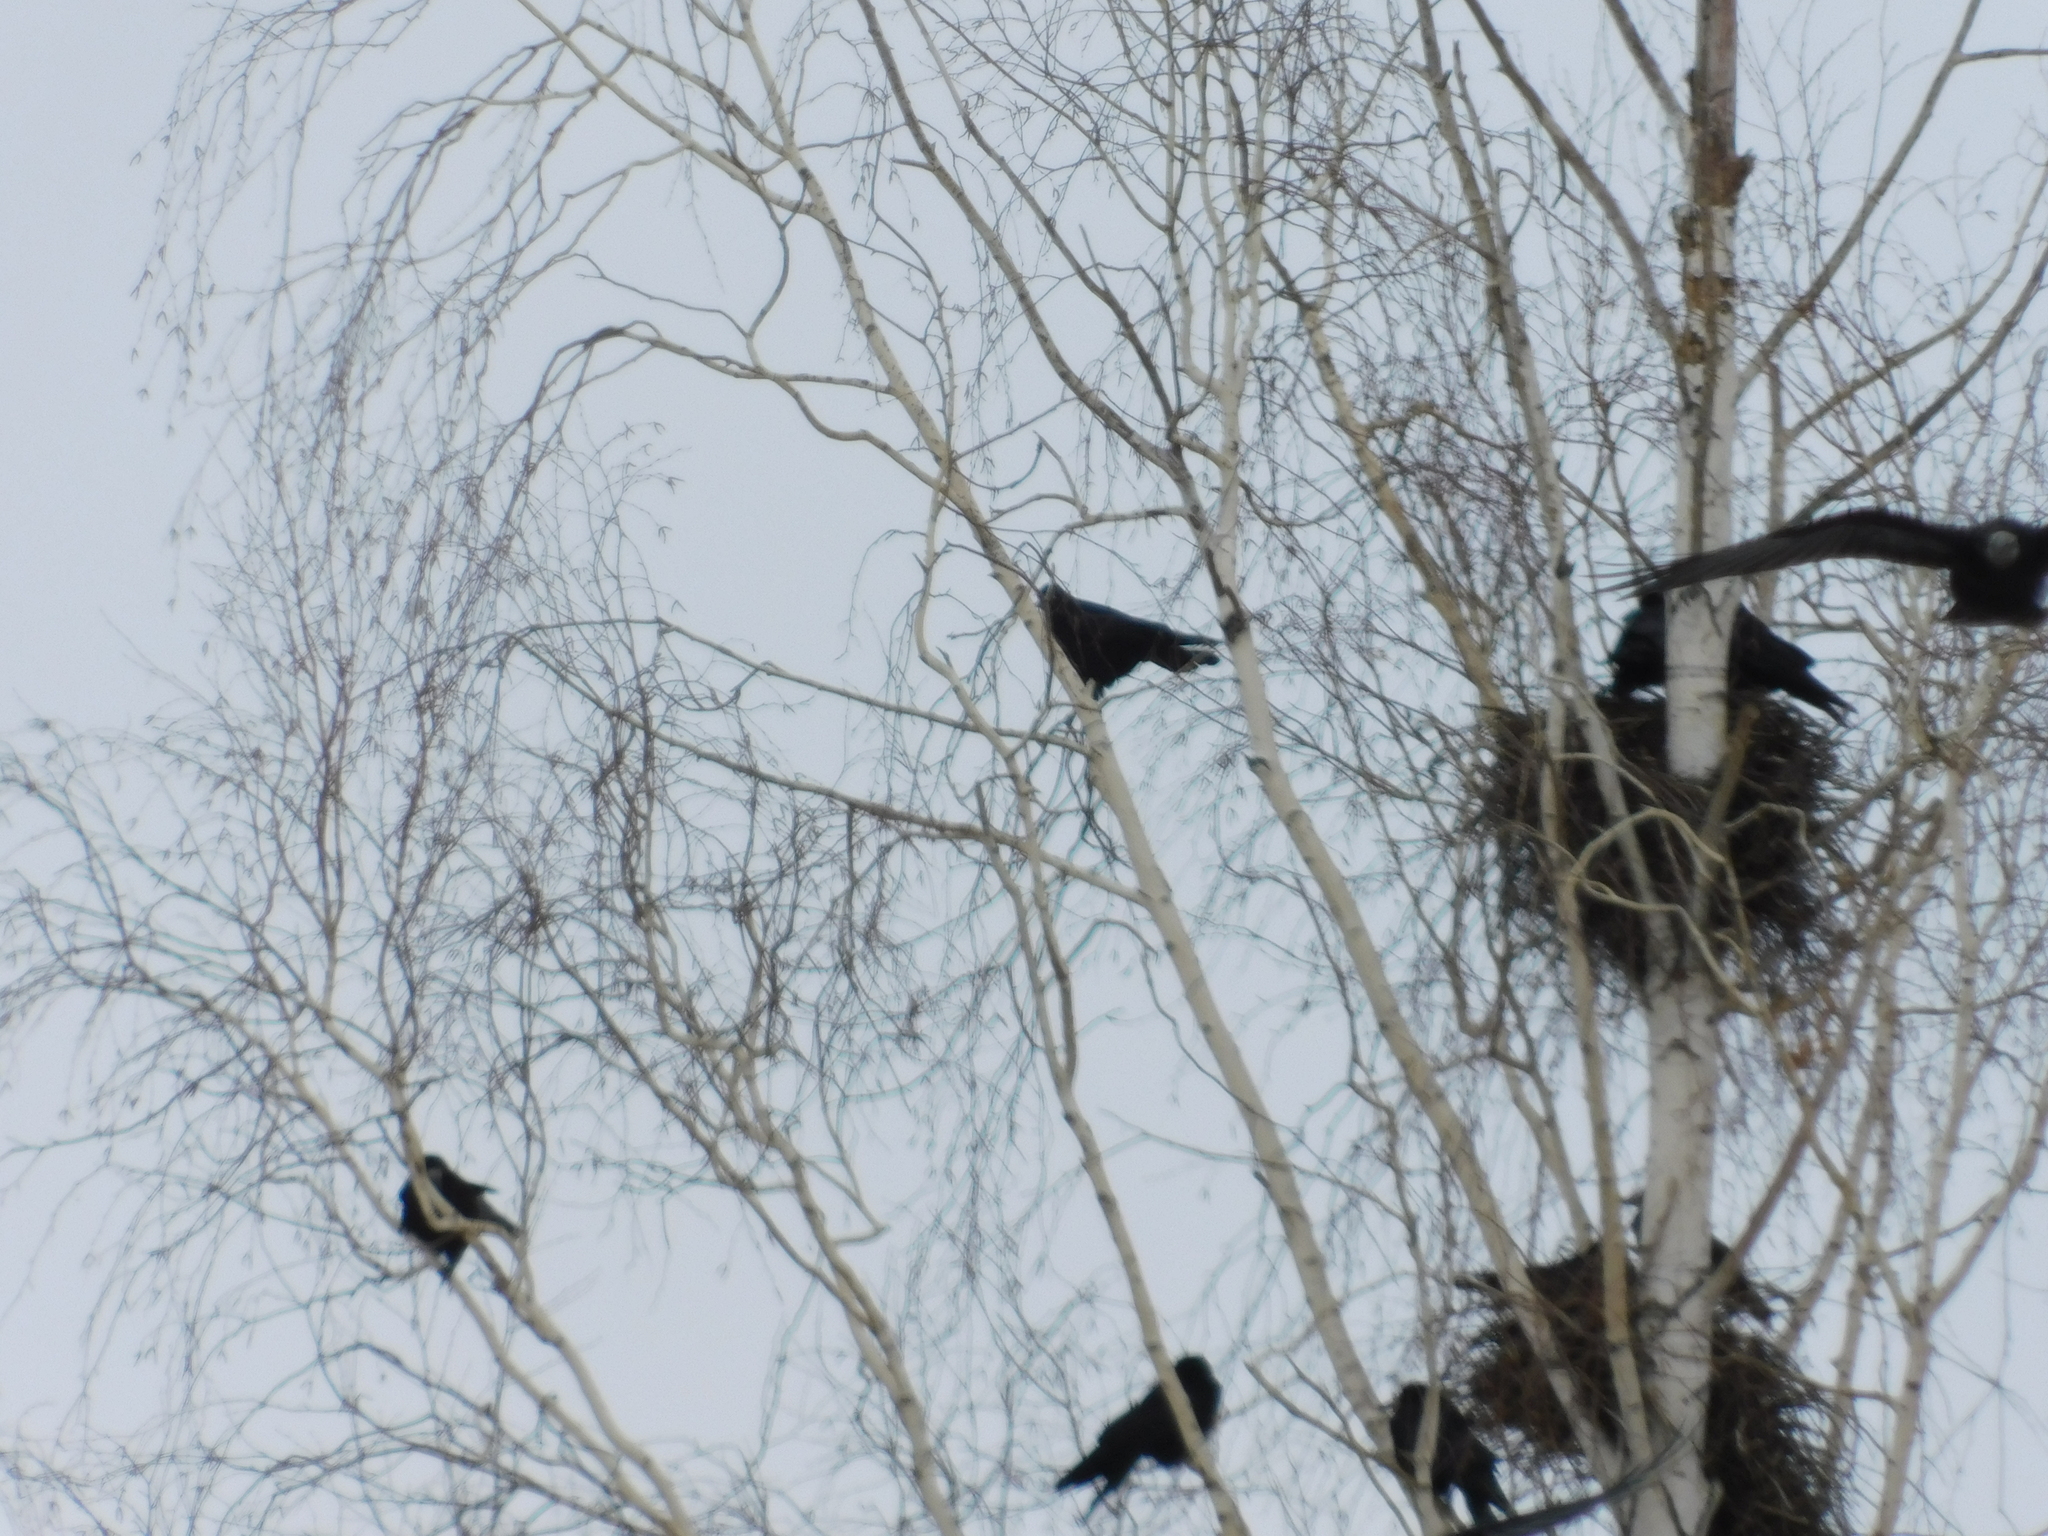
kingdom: Animalia
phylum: Chordata
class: Aves
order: Passeriformes
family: Corvidae
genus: Corvus
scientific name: Corvus frugilegus
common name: Rook
